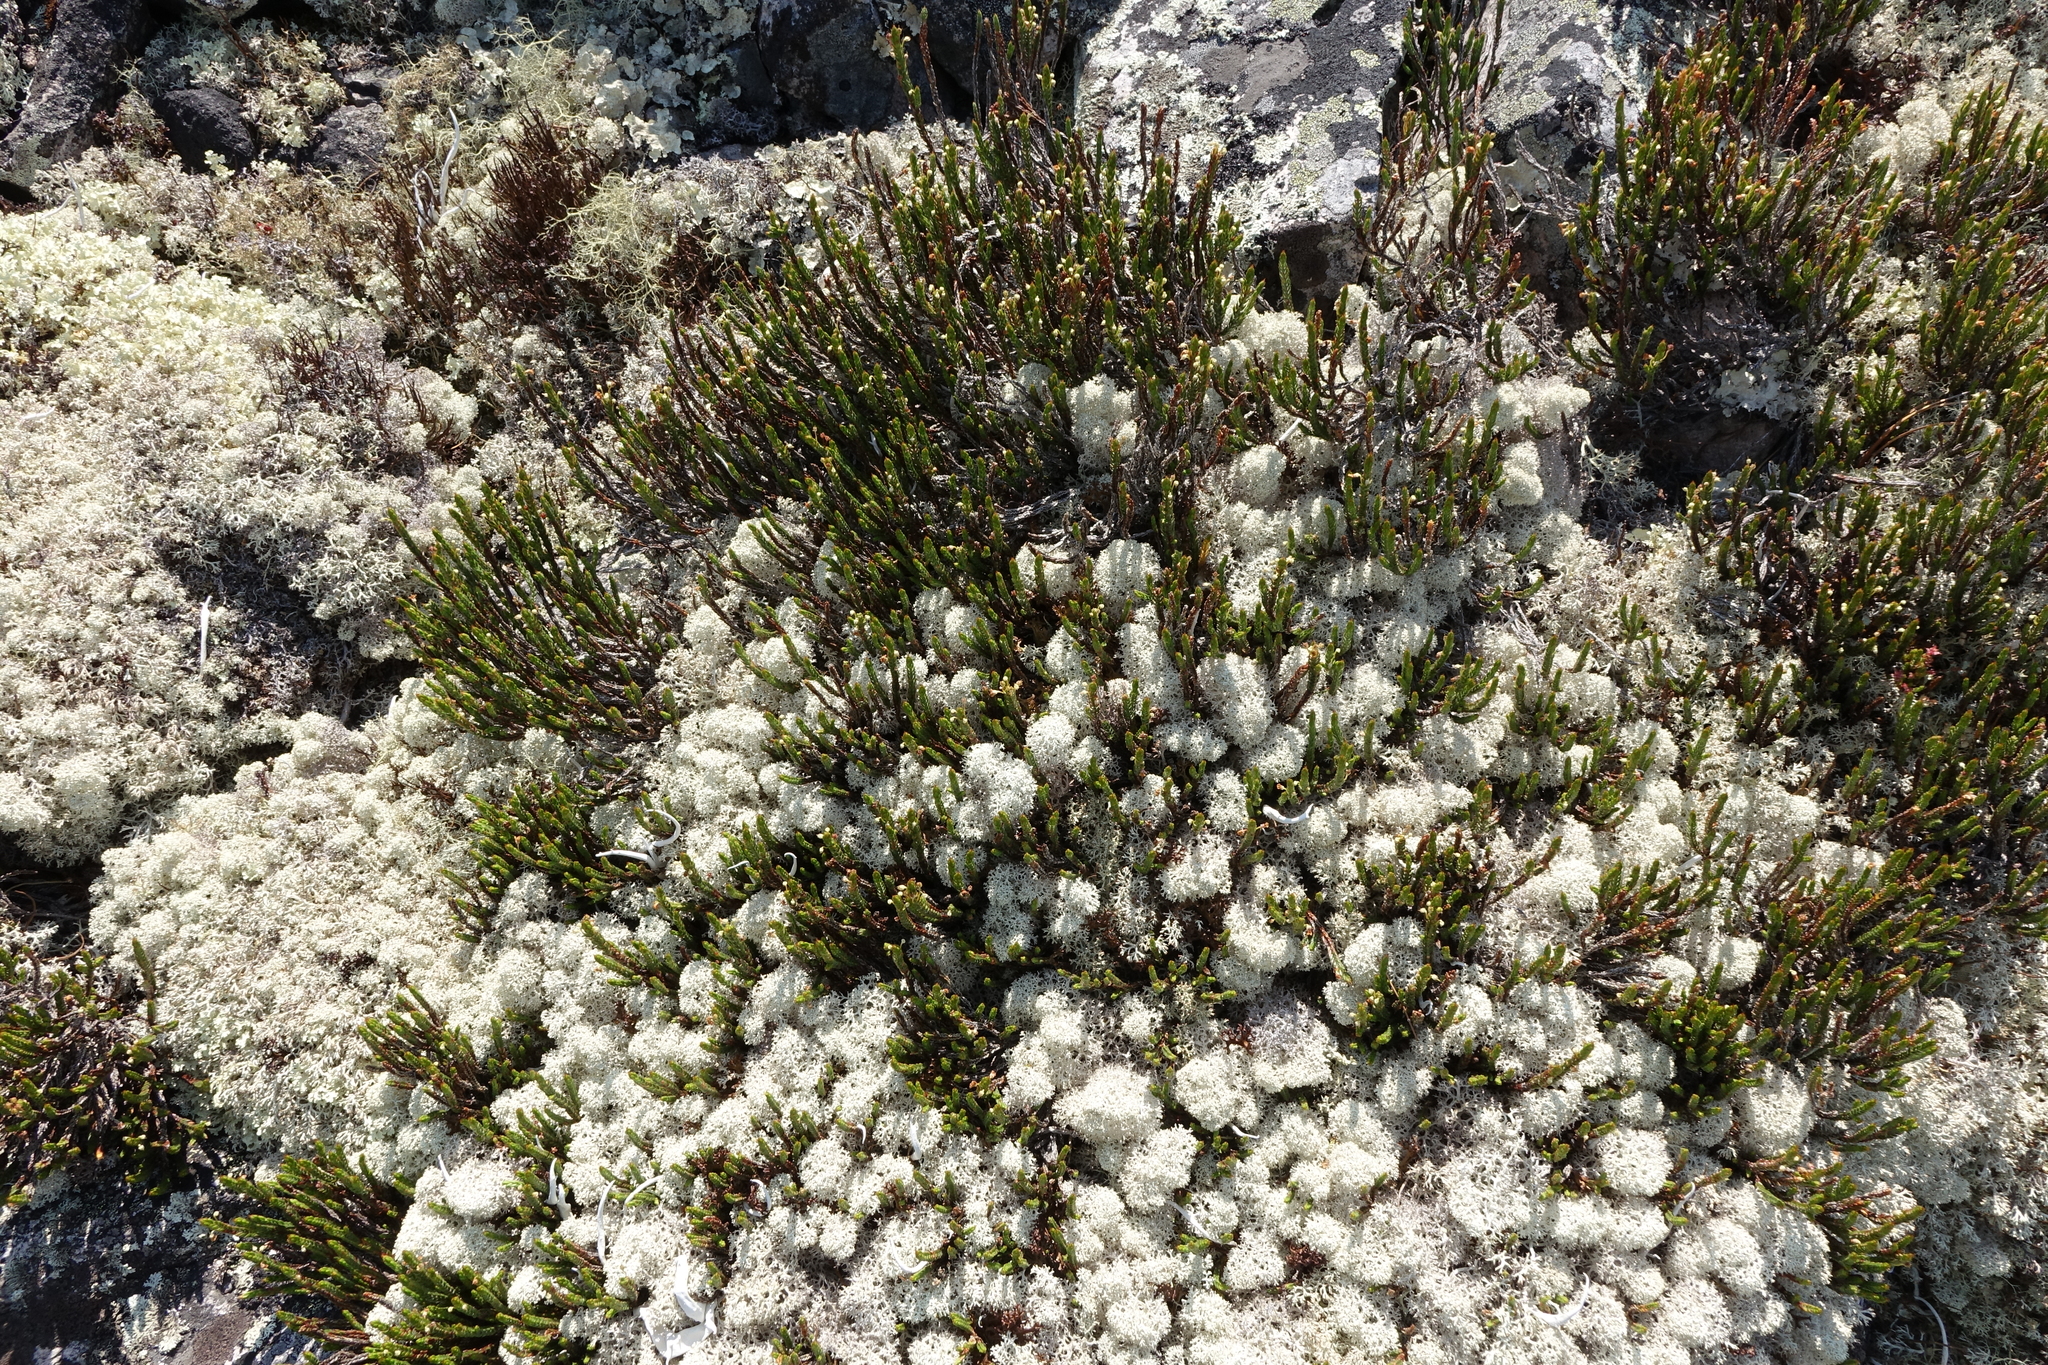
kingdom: Plantae
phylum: Tracheophyta
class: Magnoliopsida
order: Ericales
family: Ericaceae
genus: Cassiope
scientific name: Cassiope tetragona
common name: Arctic bell heather
